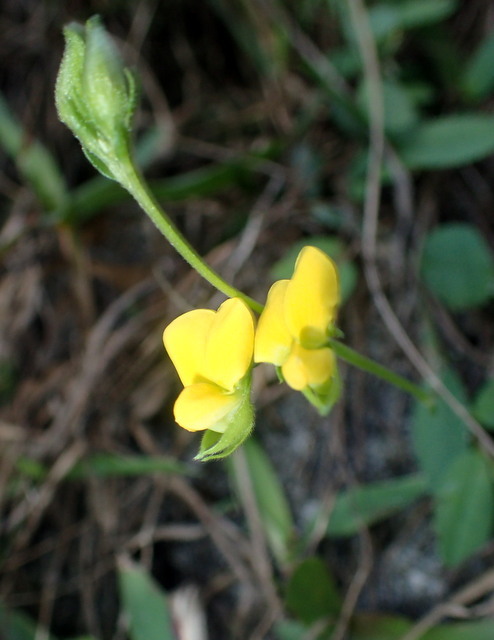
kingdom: Plantae
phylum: Tracheophyta
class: Magnoliopsida
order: Fabales
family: Fabaceae
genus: Crotalaria
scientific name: Crotalaria rotundifolia
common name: Prostrate rattlebox
